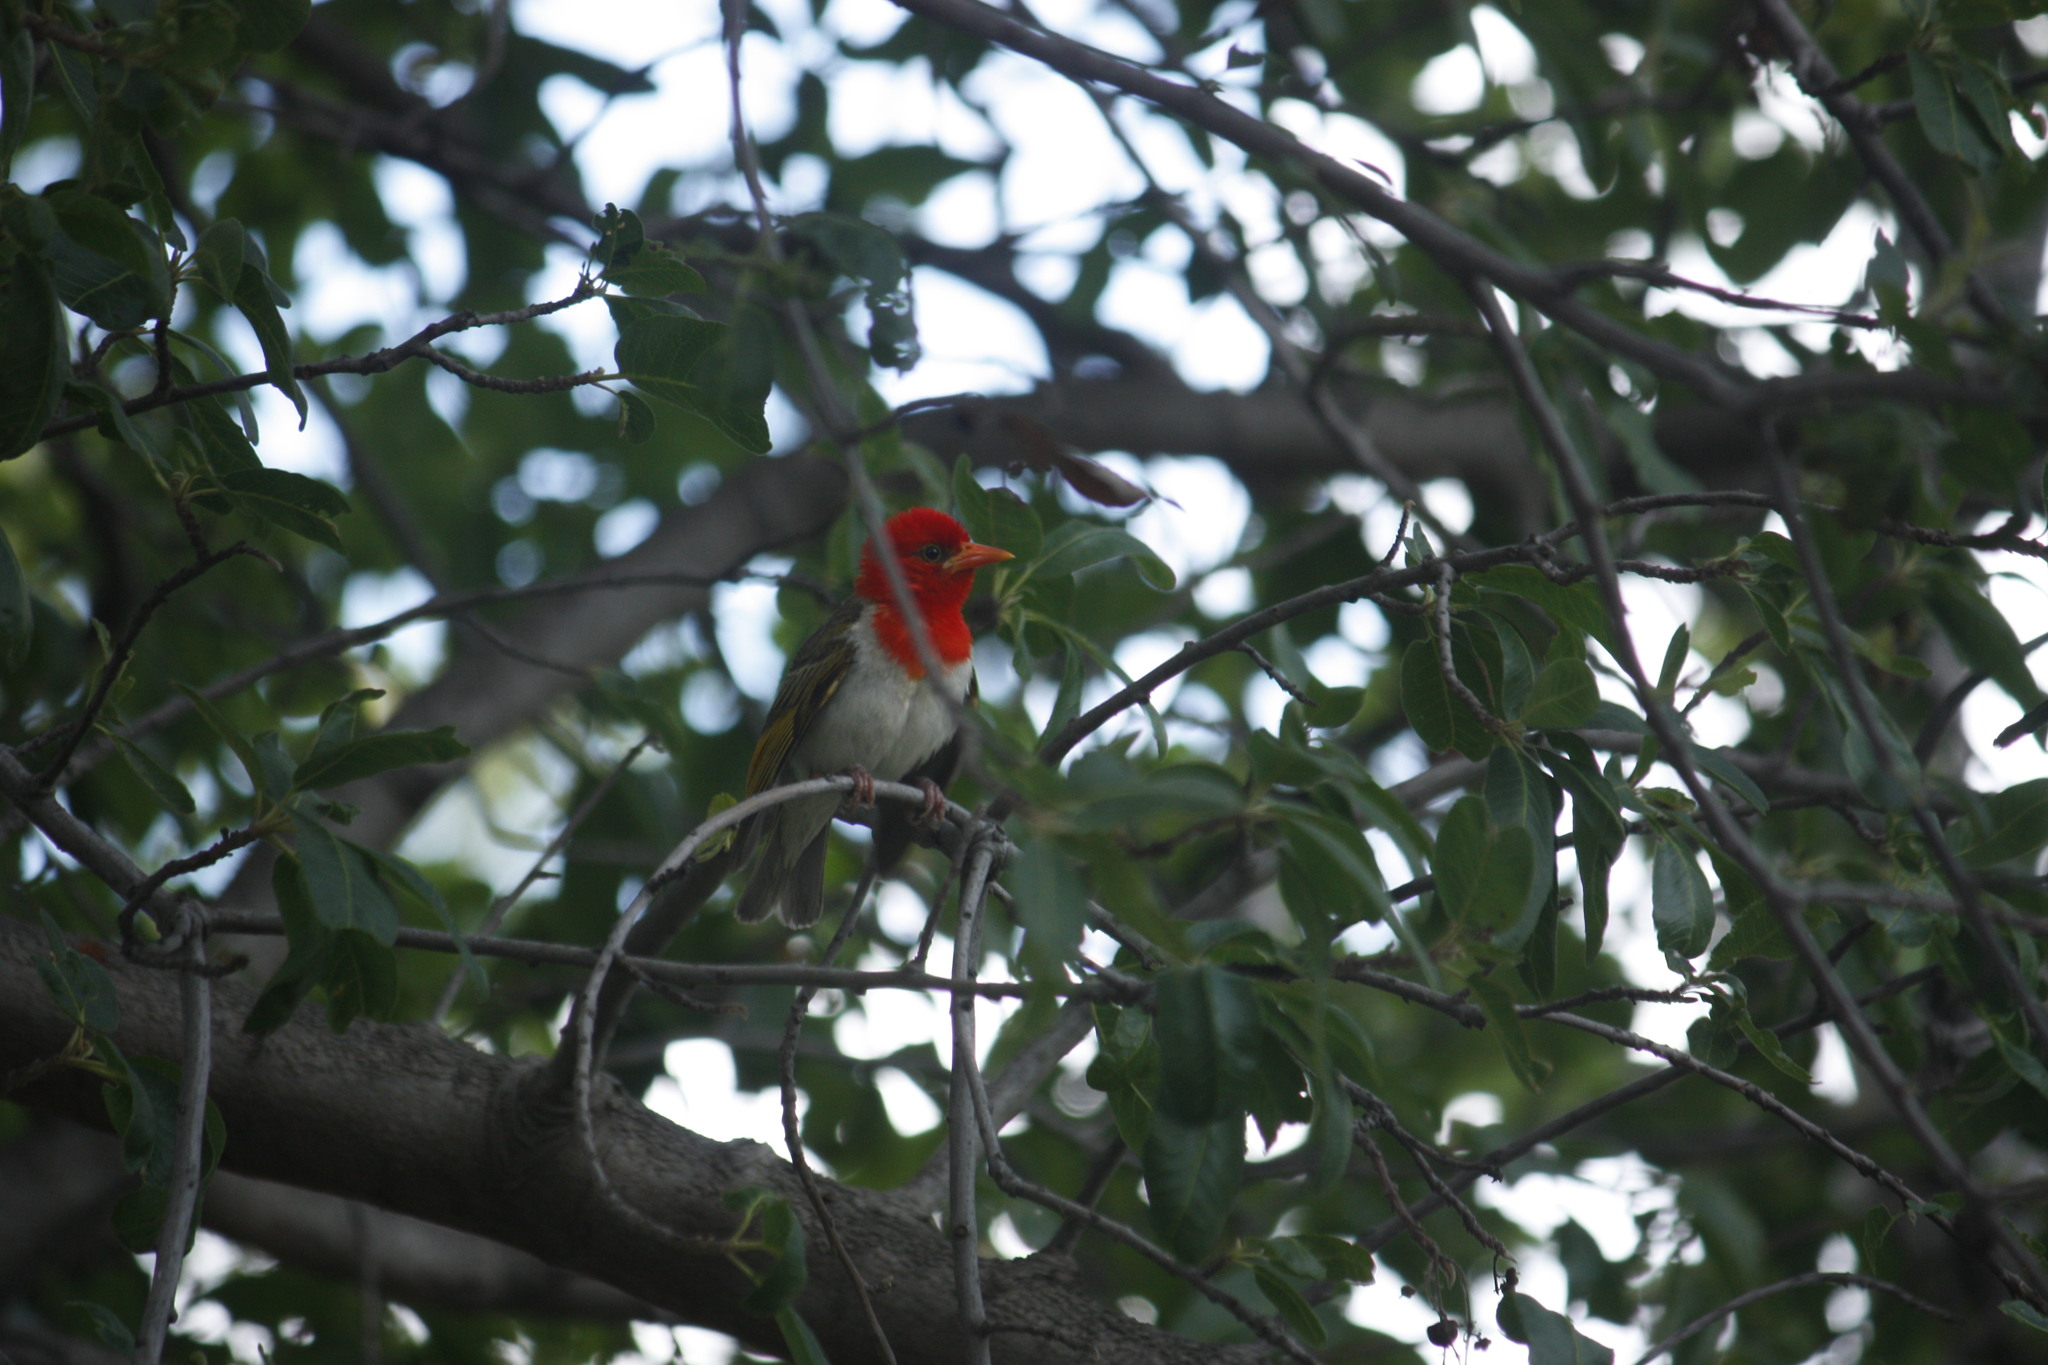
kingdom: Animalia
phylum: Chordata
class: Aves
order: Passeriformes
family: Ploceidae
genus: Anaplectes
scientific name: Anaplectes rubriceps
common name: Red-headed weaver
